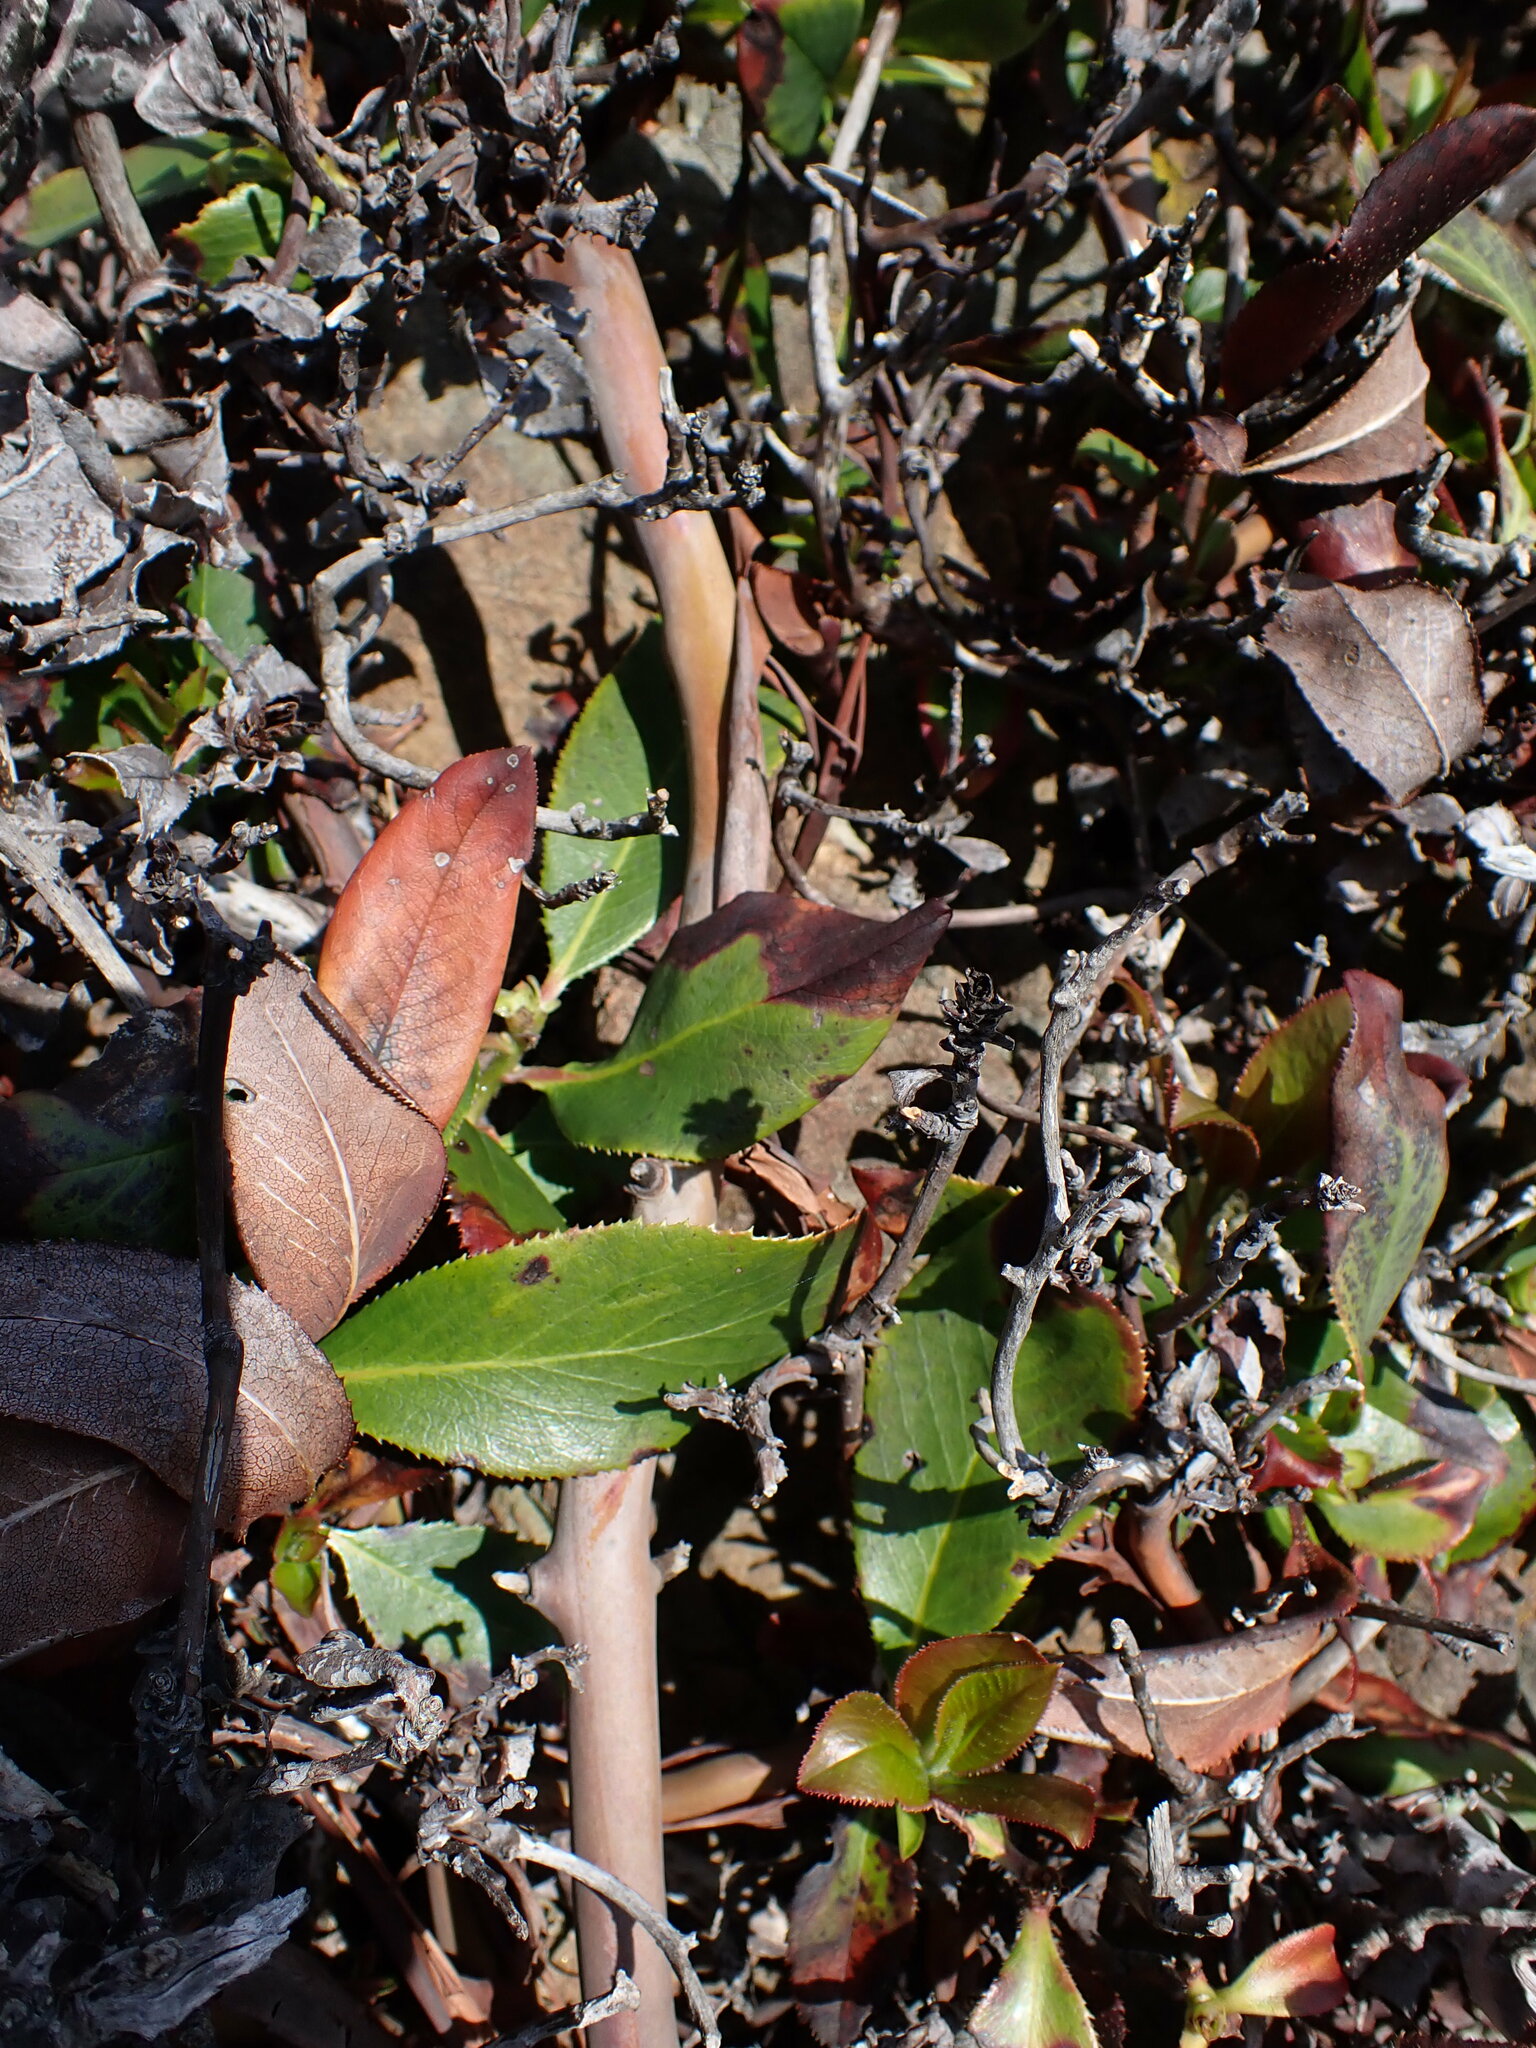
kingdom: Plantae
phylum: Tracheophyta
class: Magnoliopsida
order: Ericales
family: Ericaceae
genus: Arbutus
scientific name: Arbutus menziesii
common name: Pacific madrone
